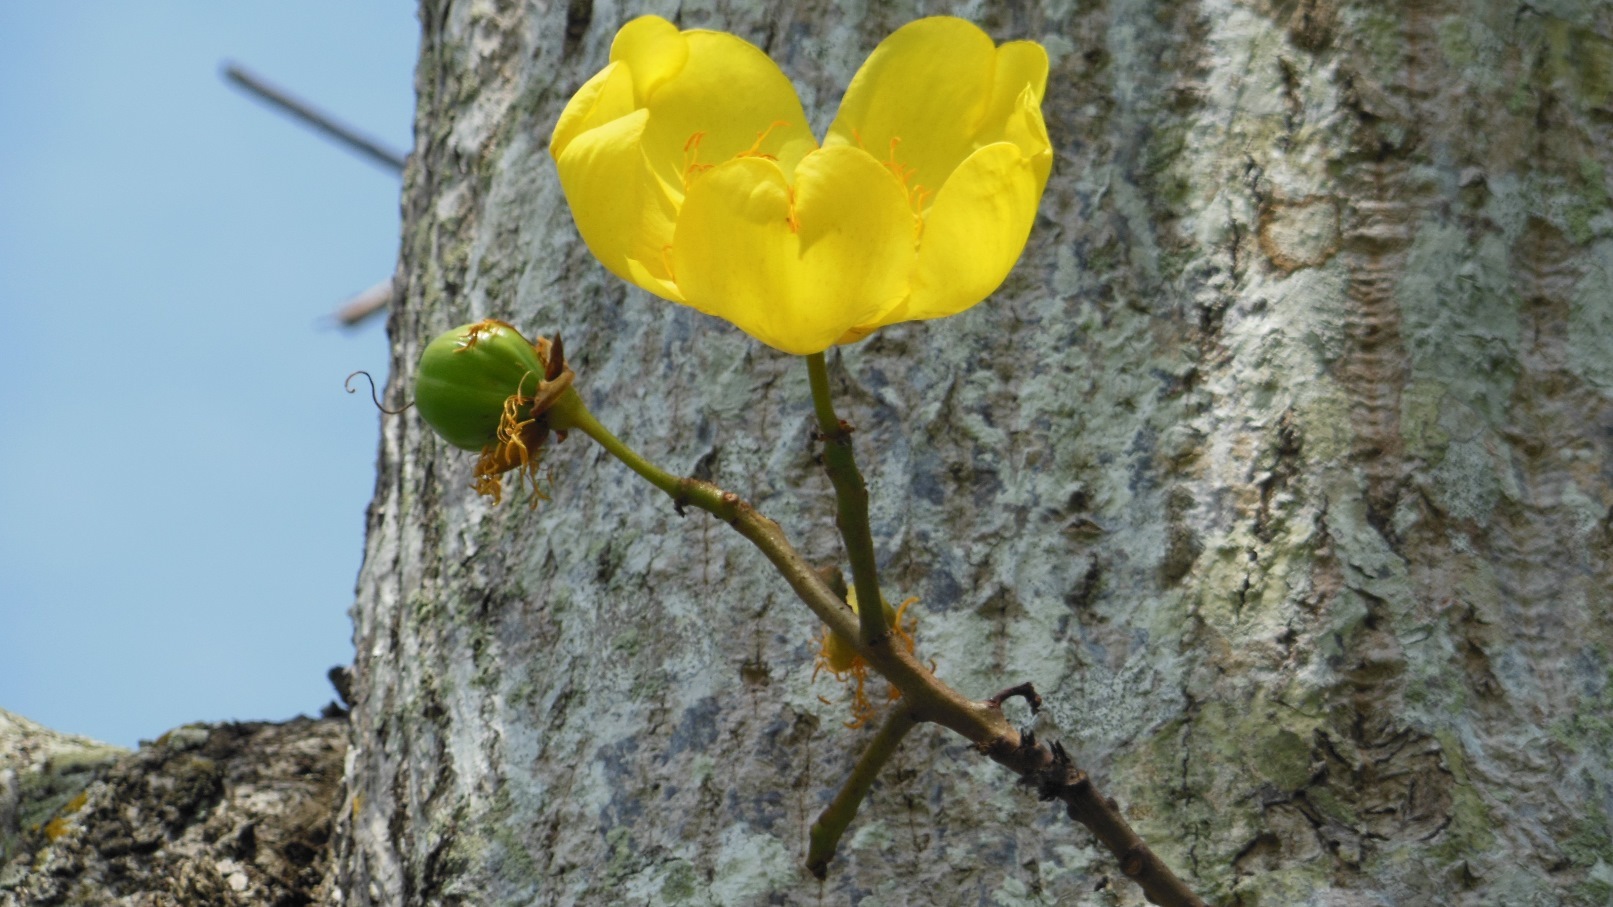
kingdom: Plantae
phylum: Tracheophyta
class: Magnoliopsida
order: Malvales
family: Cochlospermaceae
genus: Cochlospermum
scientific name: Cochlospermum vitifolium
